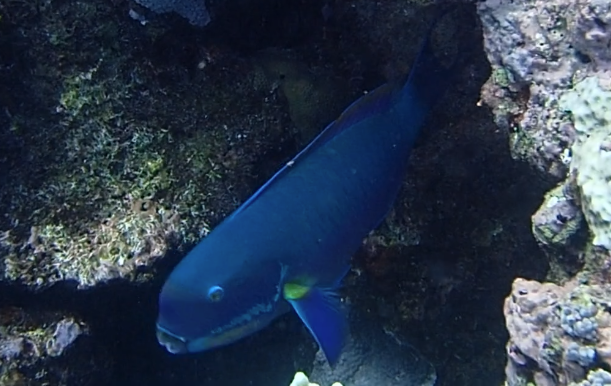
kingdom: Animalia
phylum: Chordata
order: Perciformes
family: Scaridae
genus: Chlorurus
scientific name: Chlorurus microrhinos
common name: Steephead parrotfish
